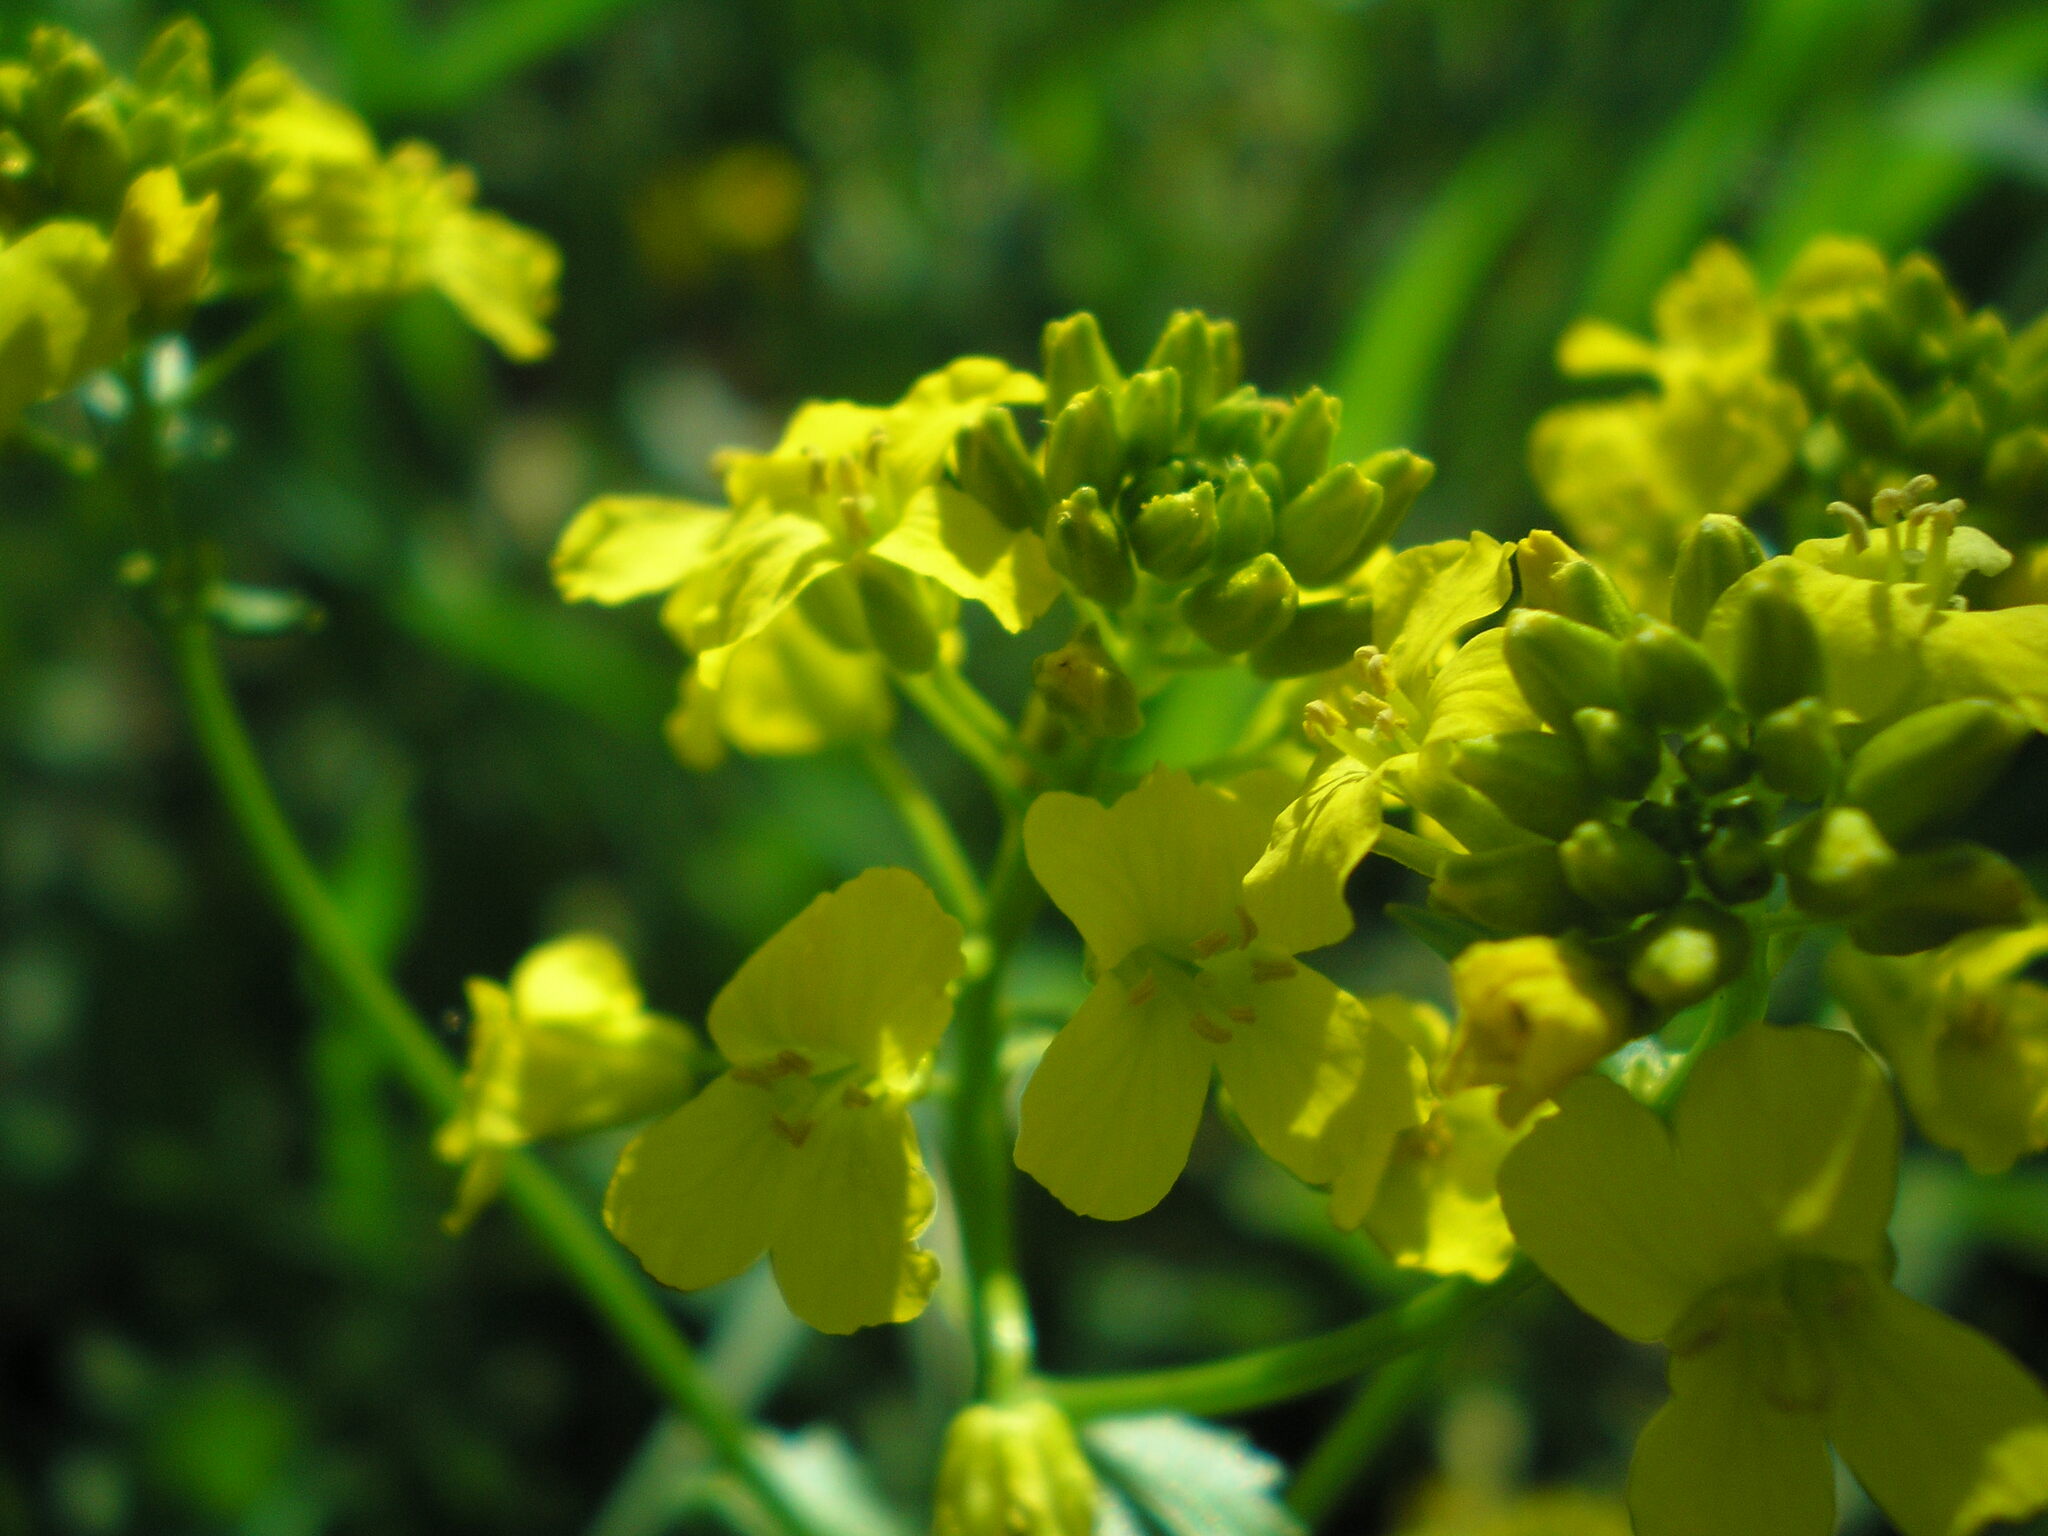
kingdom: Plantae
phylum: Tracheophyta
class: Magnoliopsida
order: Brassicales
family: Brassicaceae
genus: Barbarea
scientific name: Barbarea vulgaris
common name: Cressy-greens
